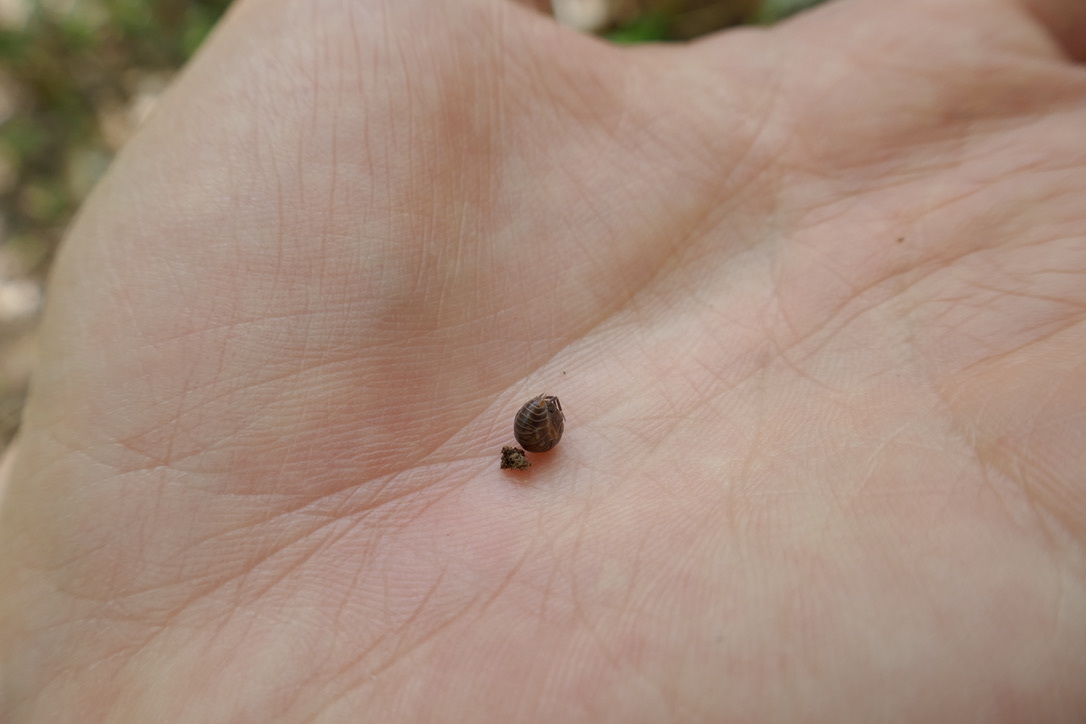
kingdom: Animalia
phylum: Arthropoda
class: Malacostraca
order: Isopoda
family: Cylisticidae
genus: Cylisticus
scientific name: Cylisticus convexus
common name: Curly woodlouse
